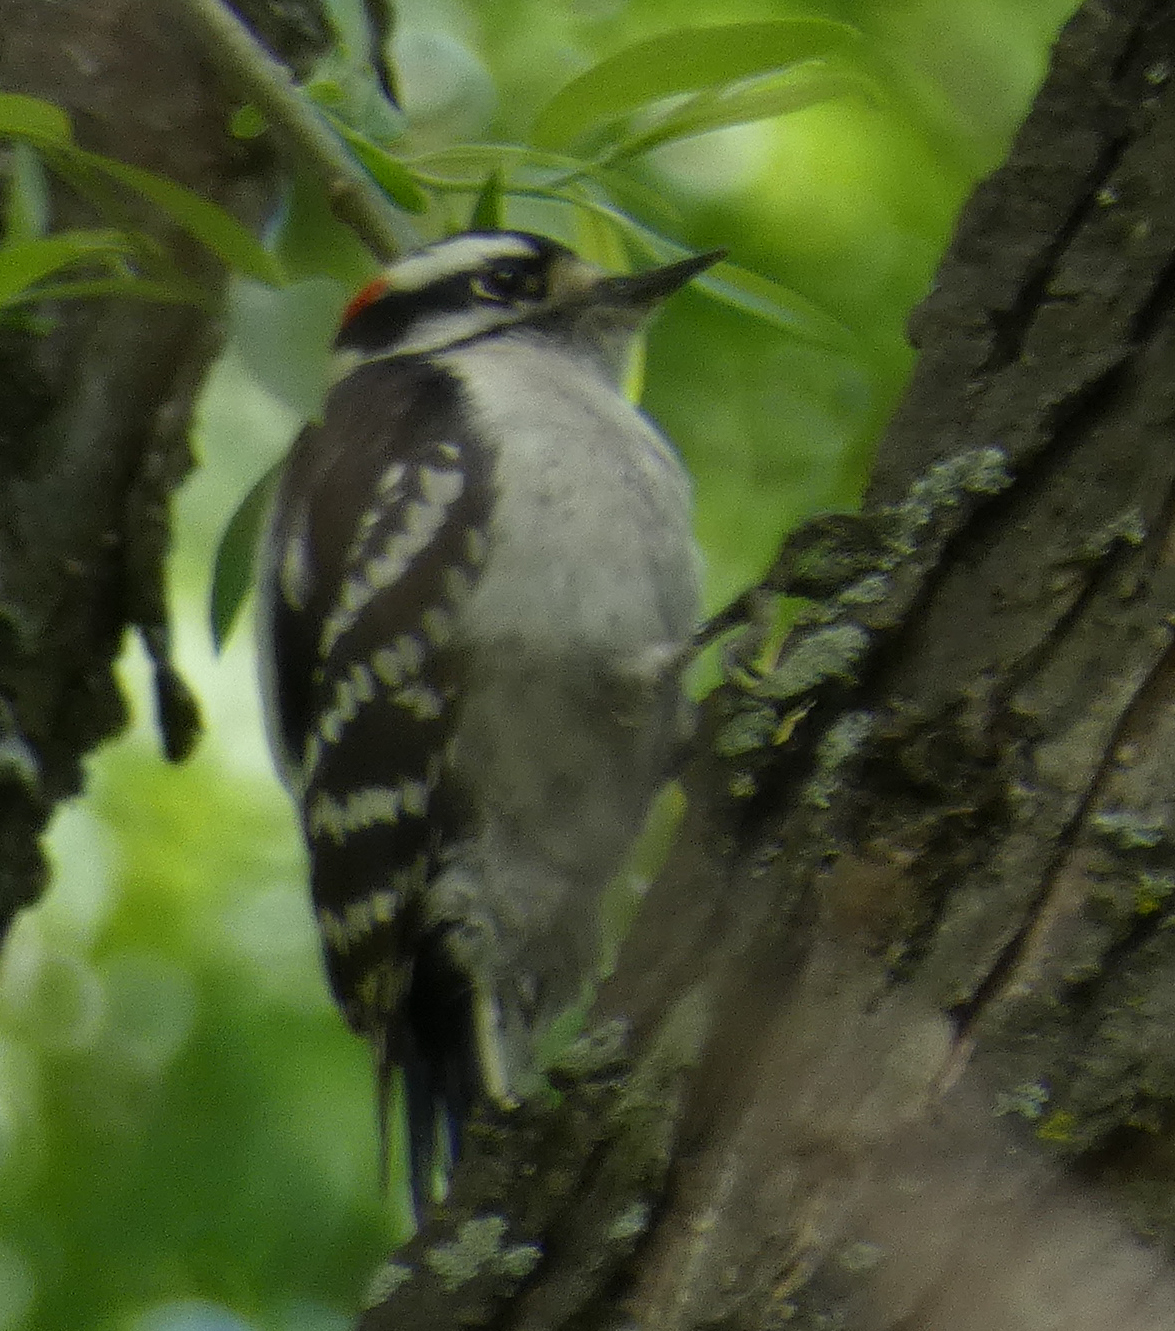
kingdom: Animalia
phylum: Chordata
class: Aves
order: Piciformes
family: Picidae
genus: Dryobates
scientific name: Dryobates pubescens
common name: Downy woodpecker
